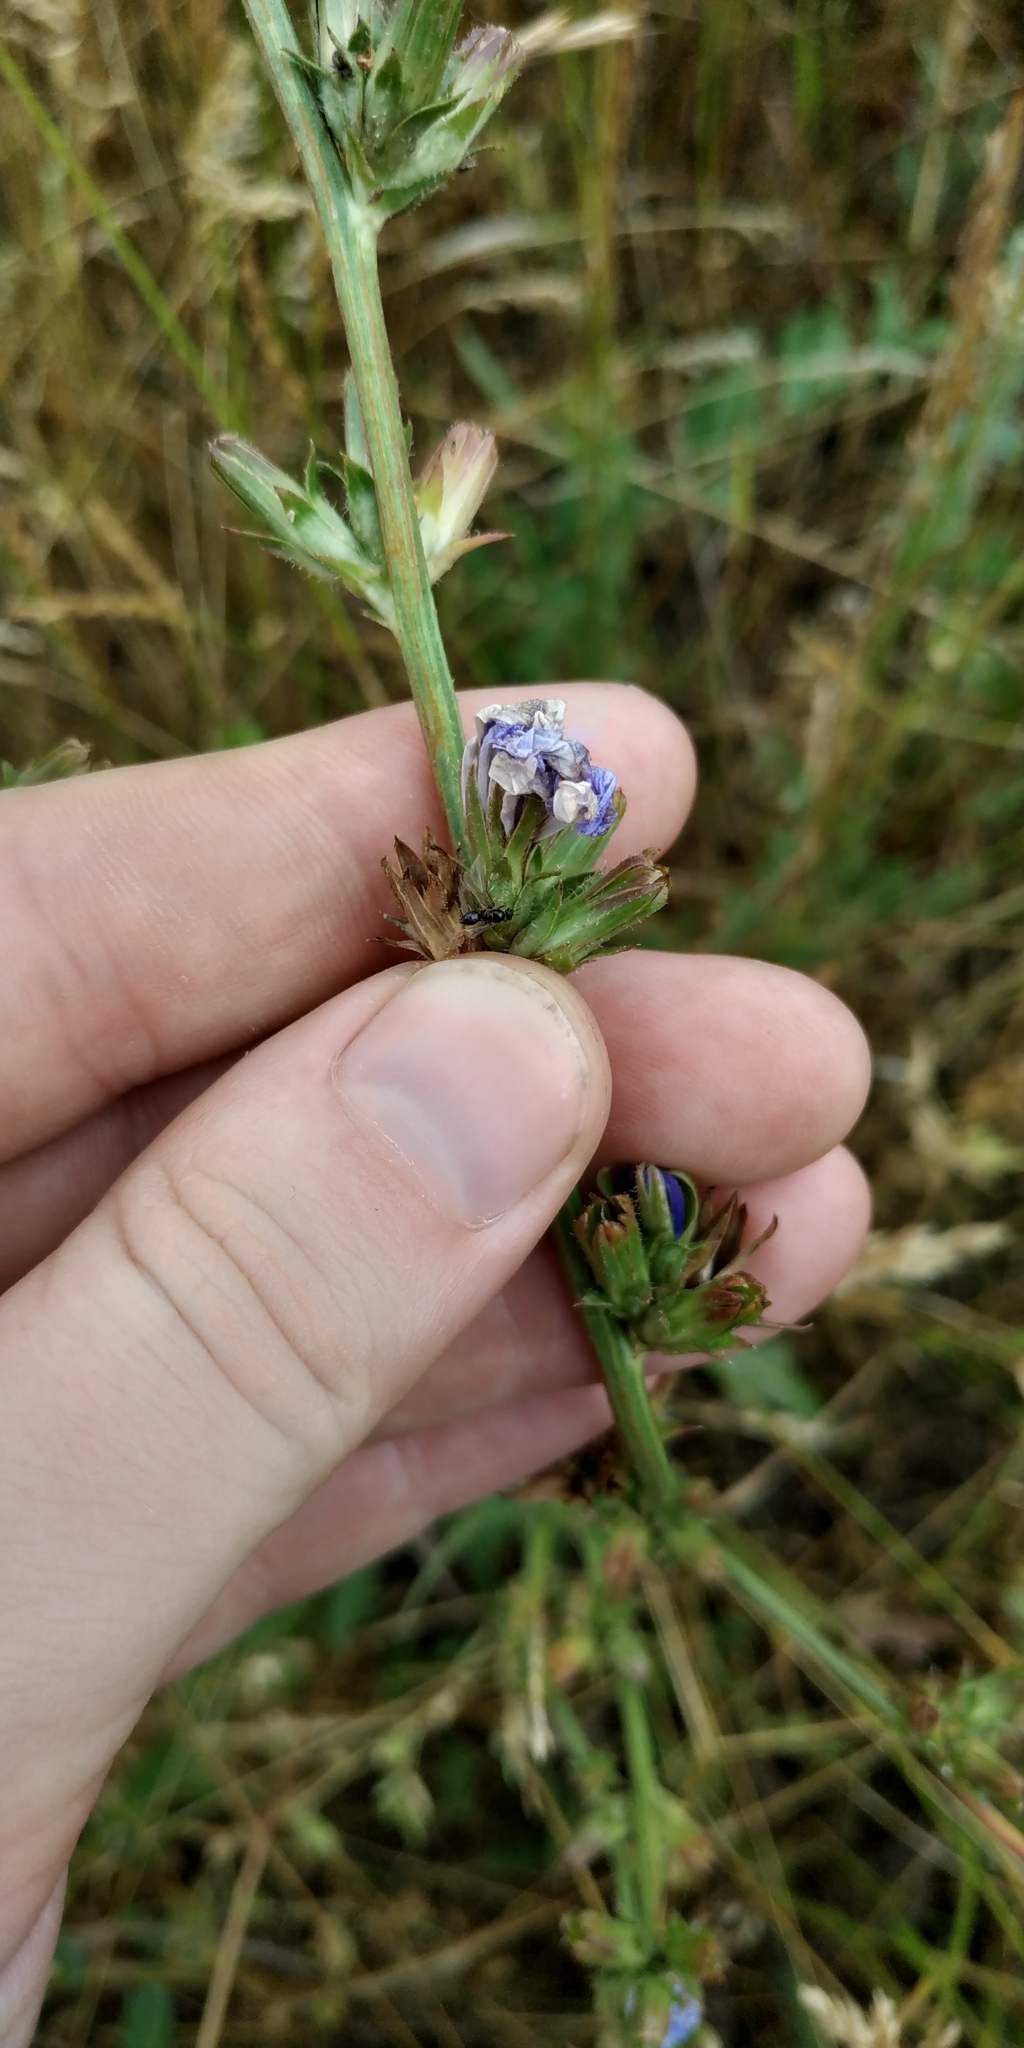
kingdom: Plantae
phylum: Tracheophyta
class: Magnoliopsida
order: Asterales
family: Asteraceae
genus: Cichorium
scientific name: Cichorium intybus
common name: Chicory
